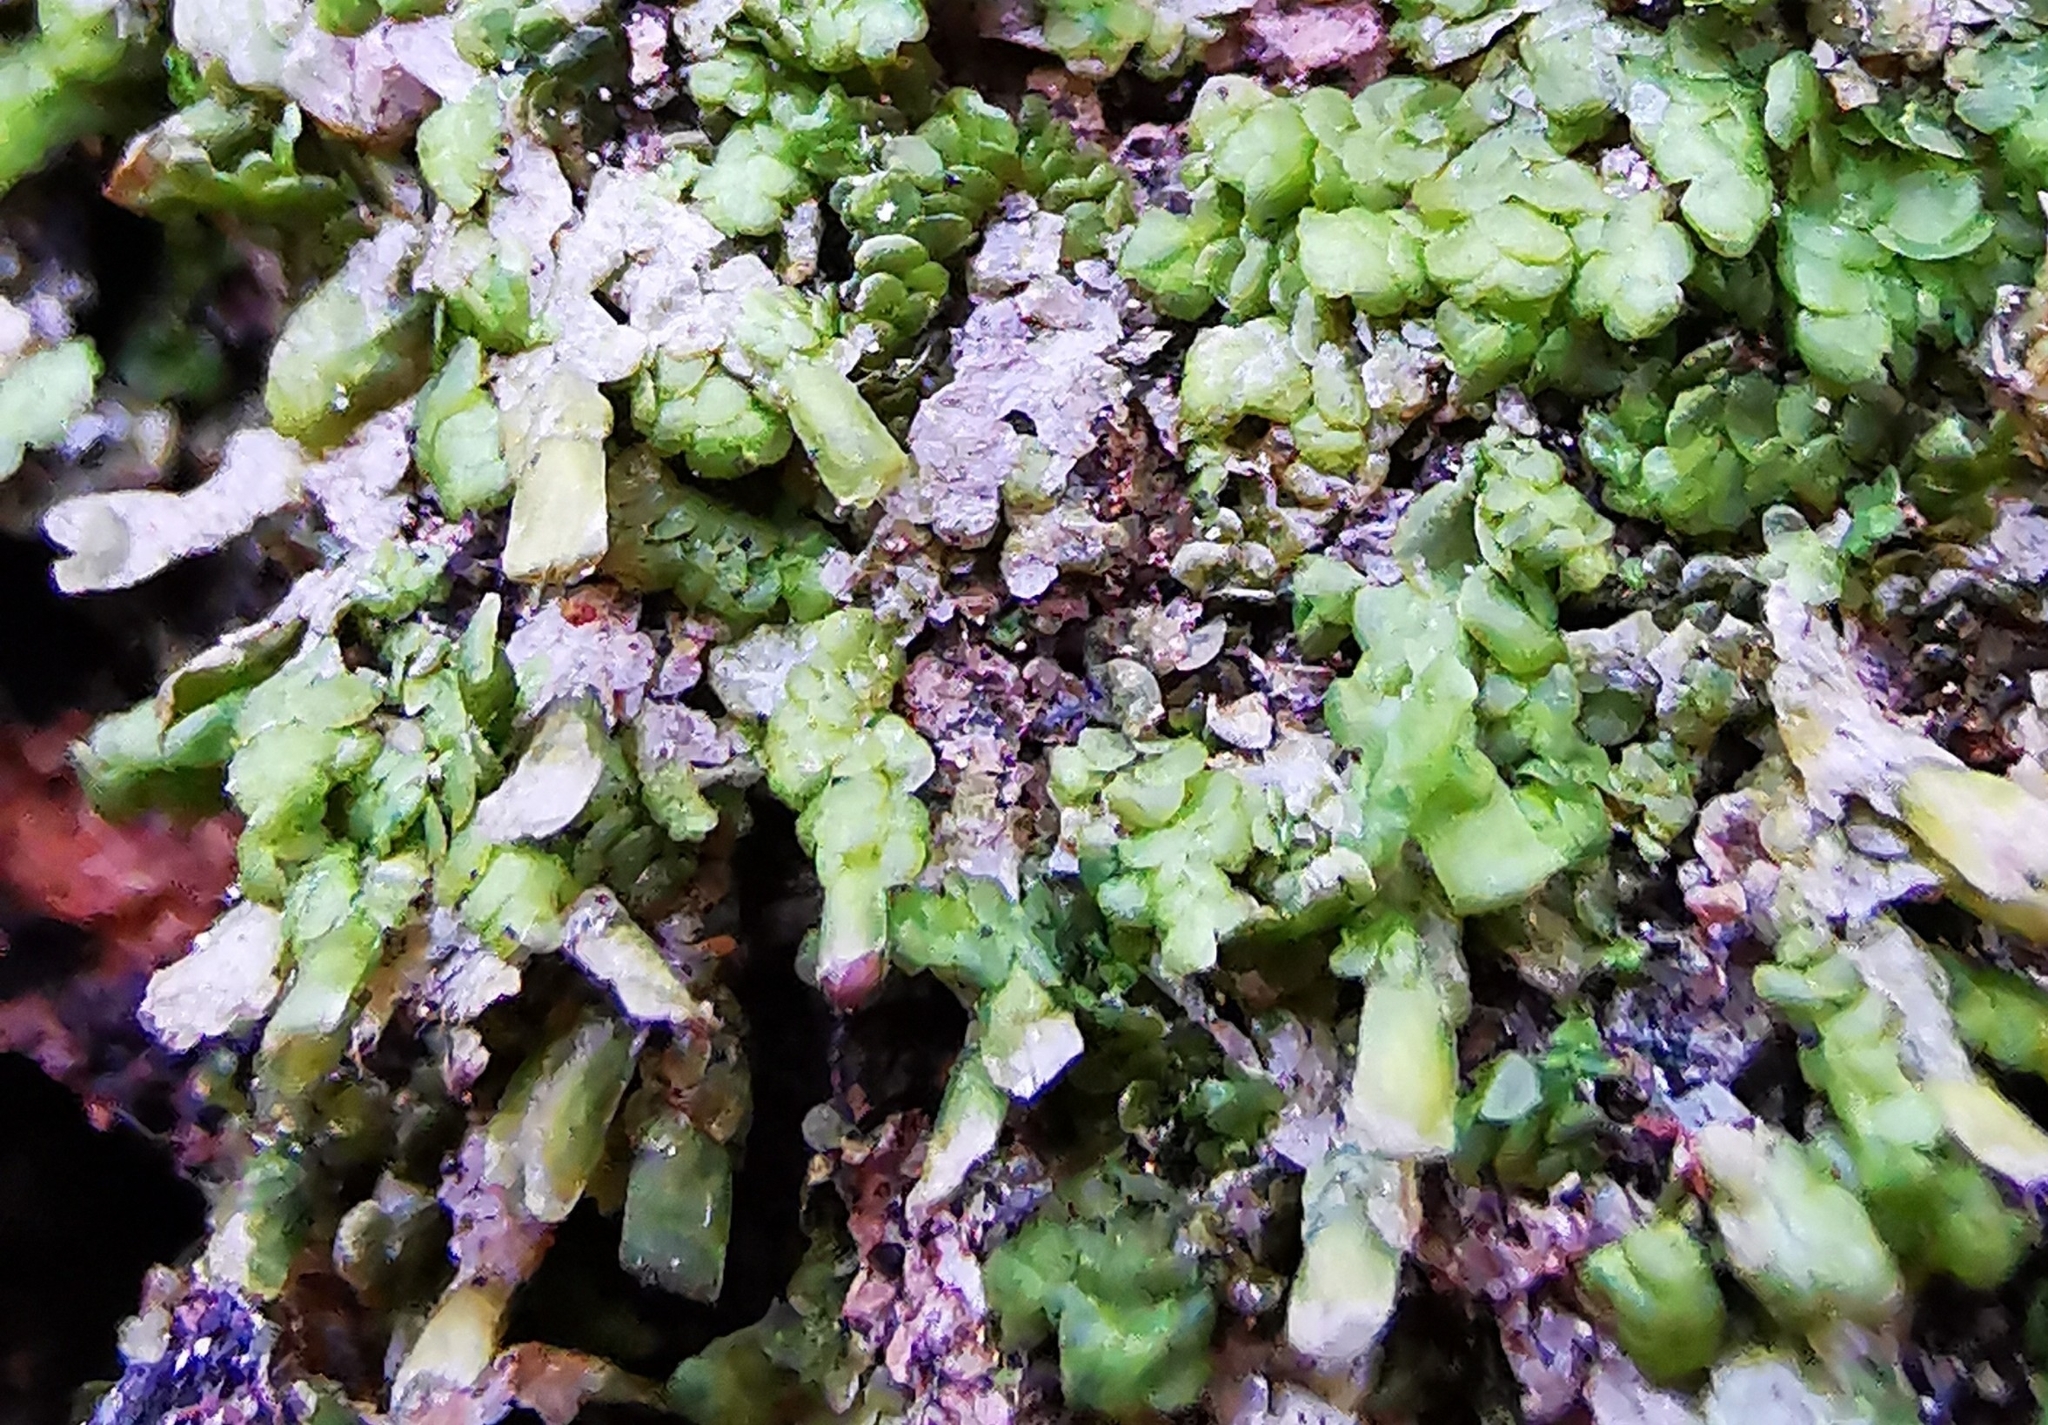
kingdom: Plantae
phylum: Marchantiophyta
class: Jungermanniopsida
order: Porellales
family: Radulaceae
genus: Radula
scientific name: Radula complanata
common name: Flat-leaved scalewort
